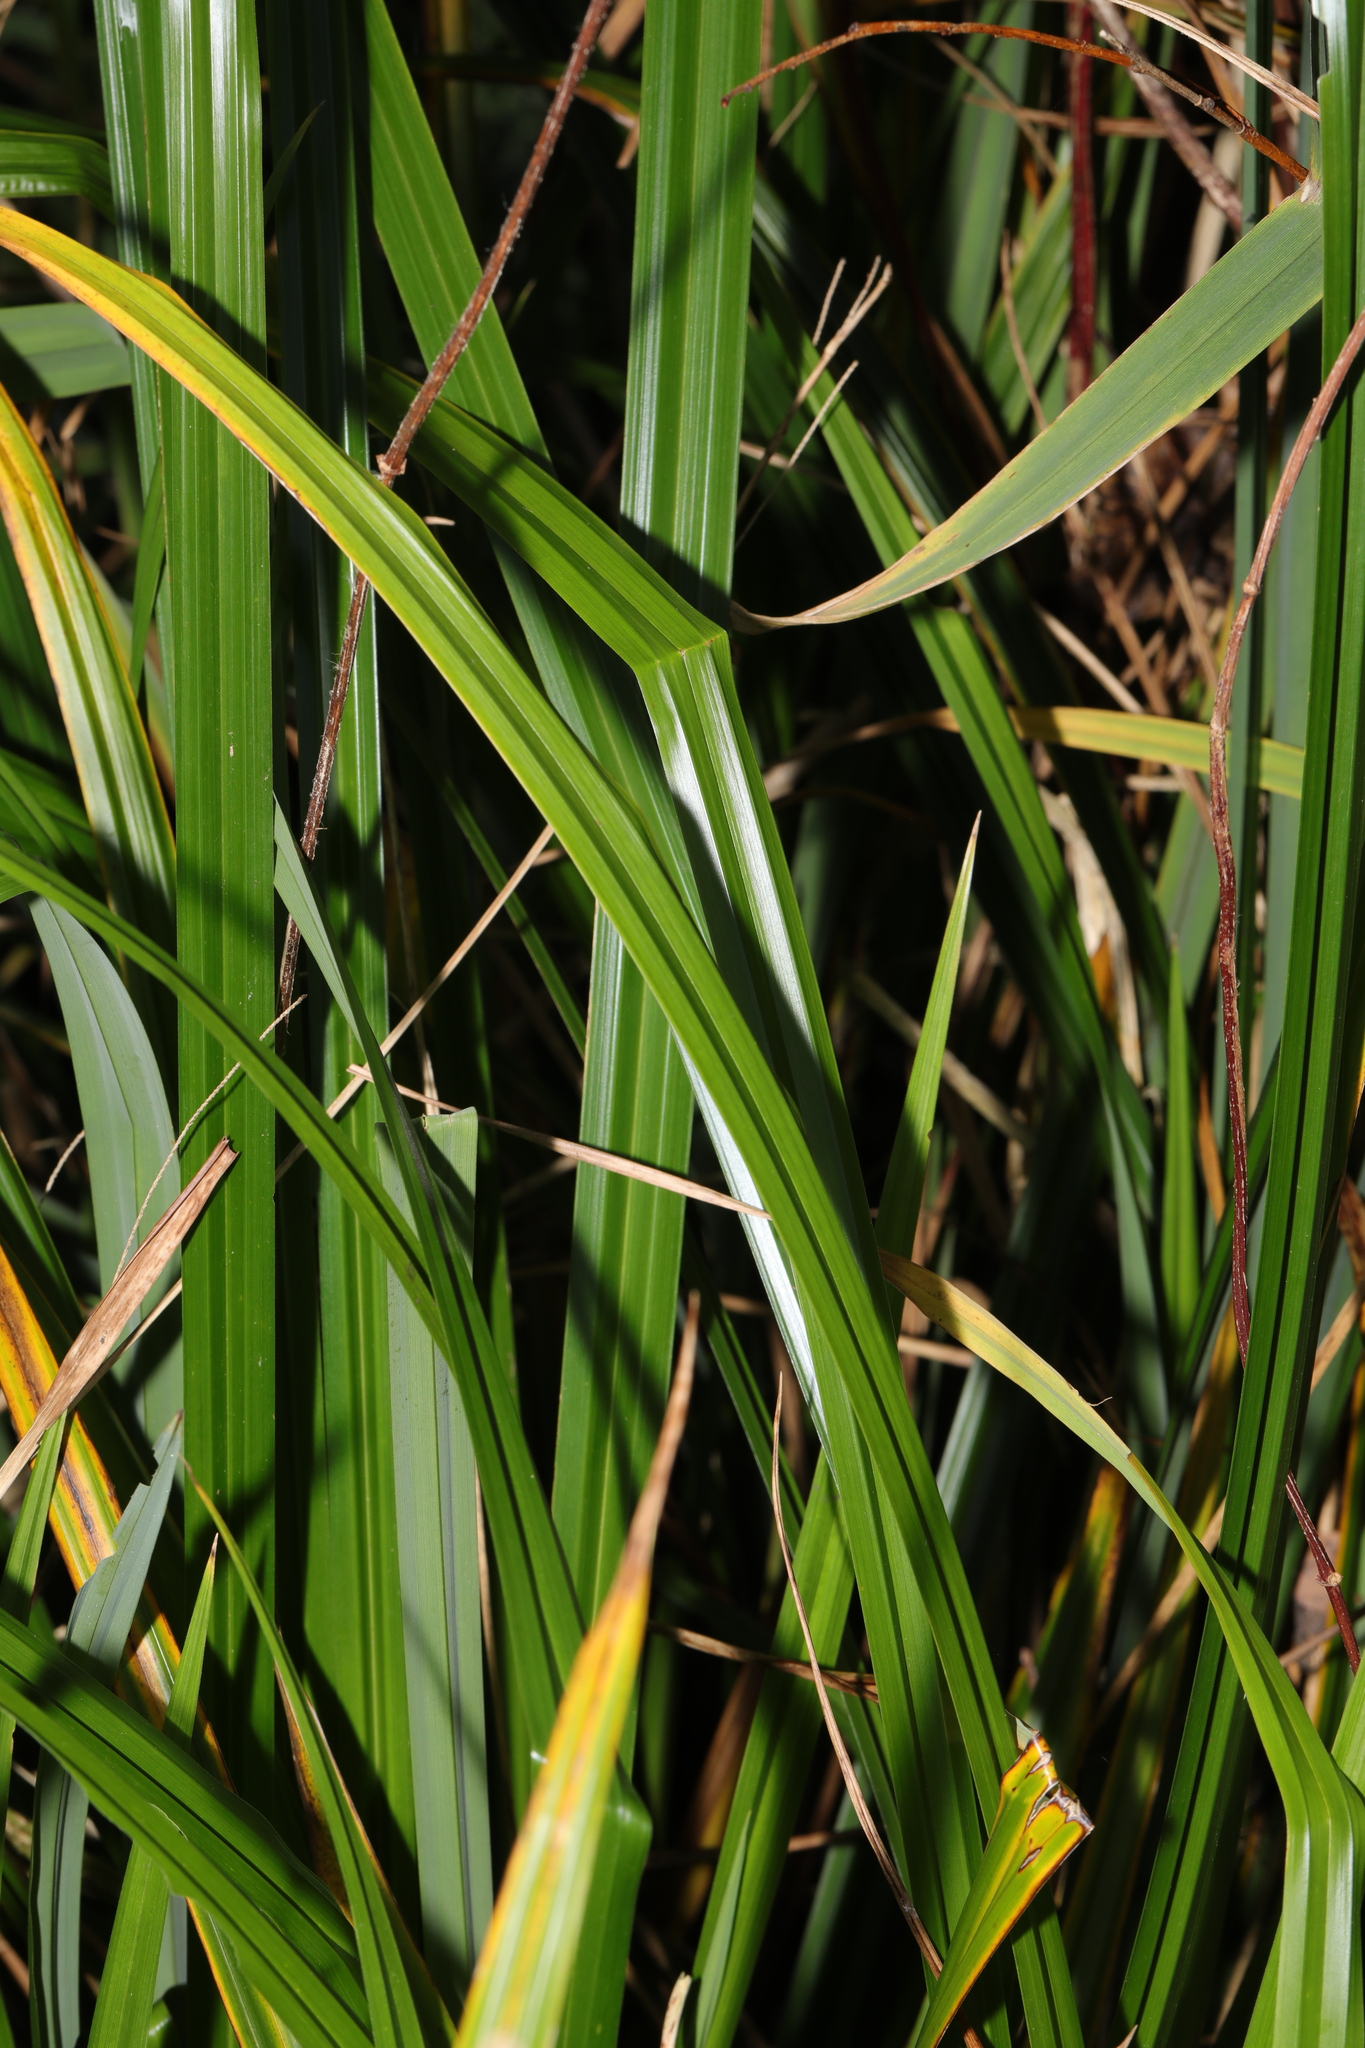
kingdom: Plantae
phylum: Tracheophyta
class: Liliopsida
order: Poales
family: Cyperaceae
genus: Carex
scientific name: Carex pendula
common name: Pendulous sedge
